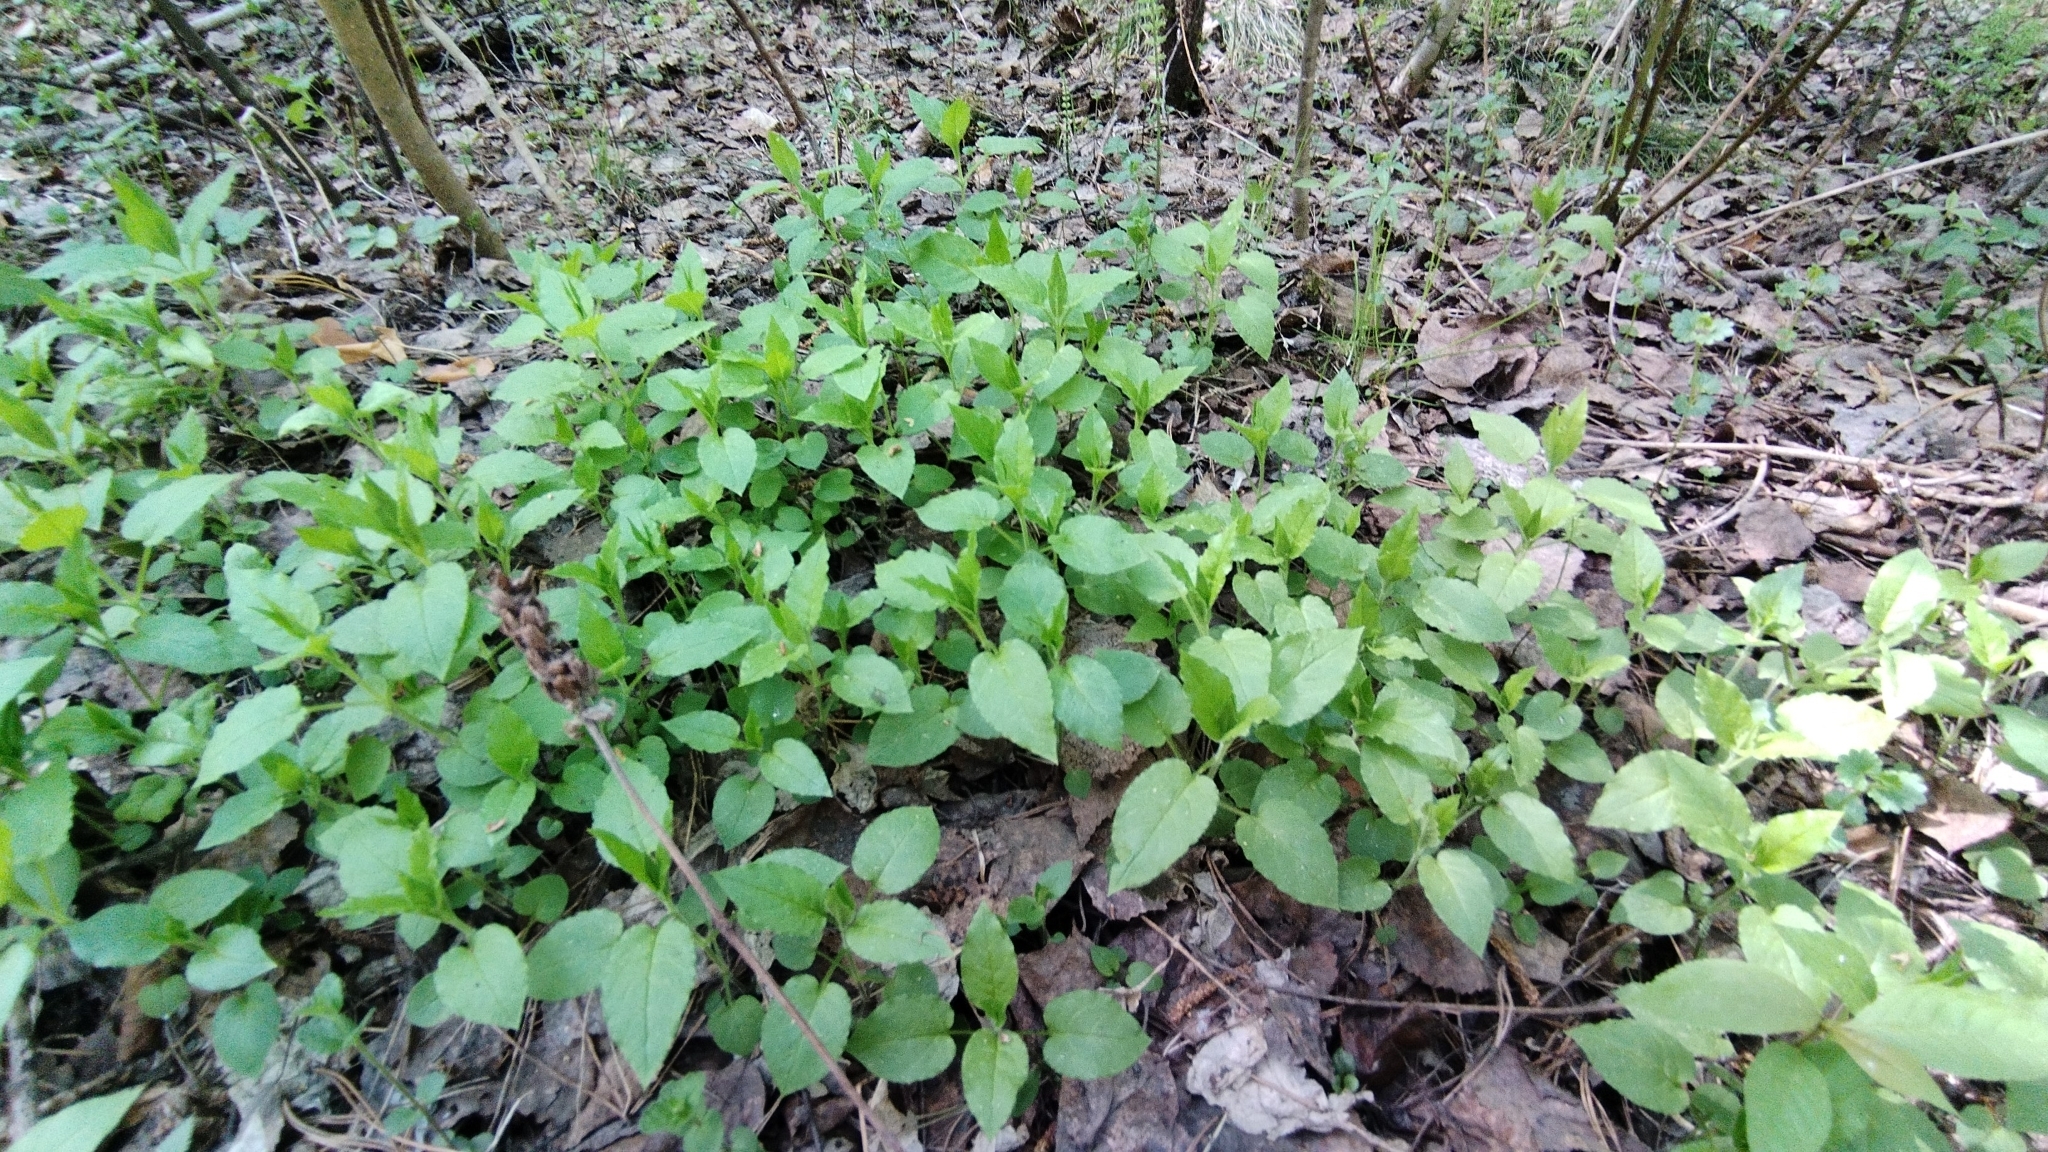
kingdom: Plantae
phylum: Tracheophyta
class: Magnoliopsida
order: Caryophyllales
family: Caryophyllaceae
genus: Stellaria
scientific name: Stellaria bungeana
